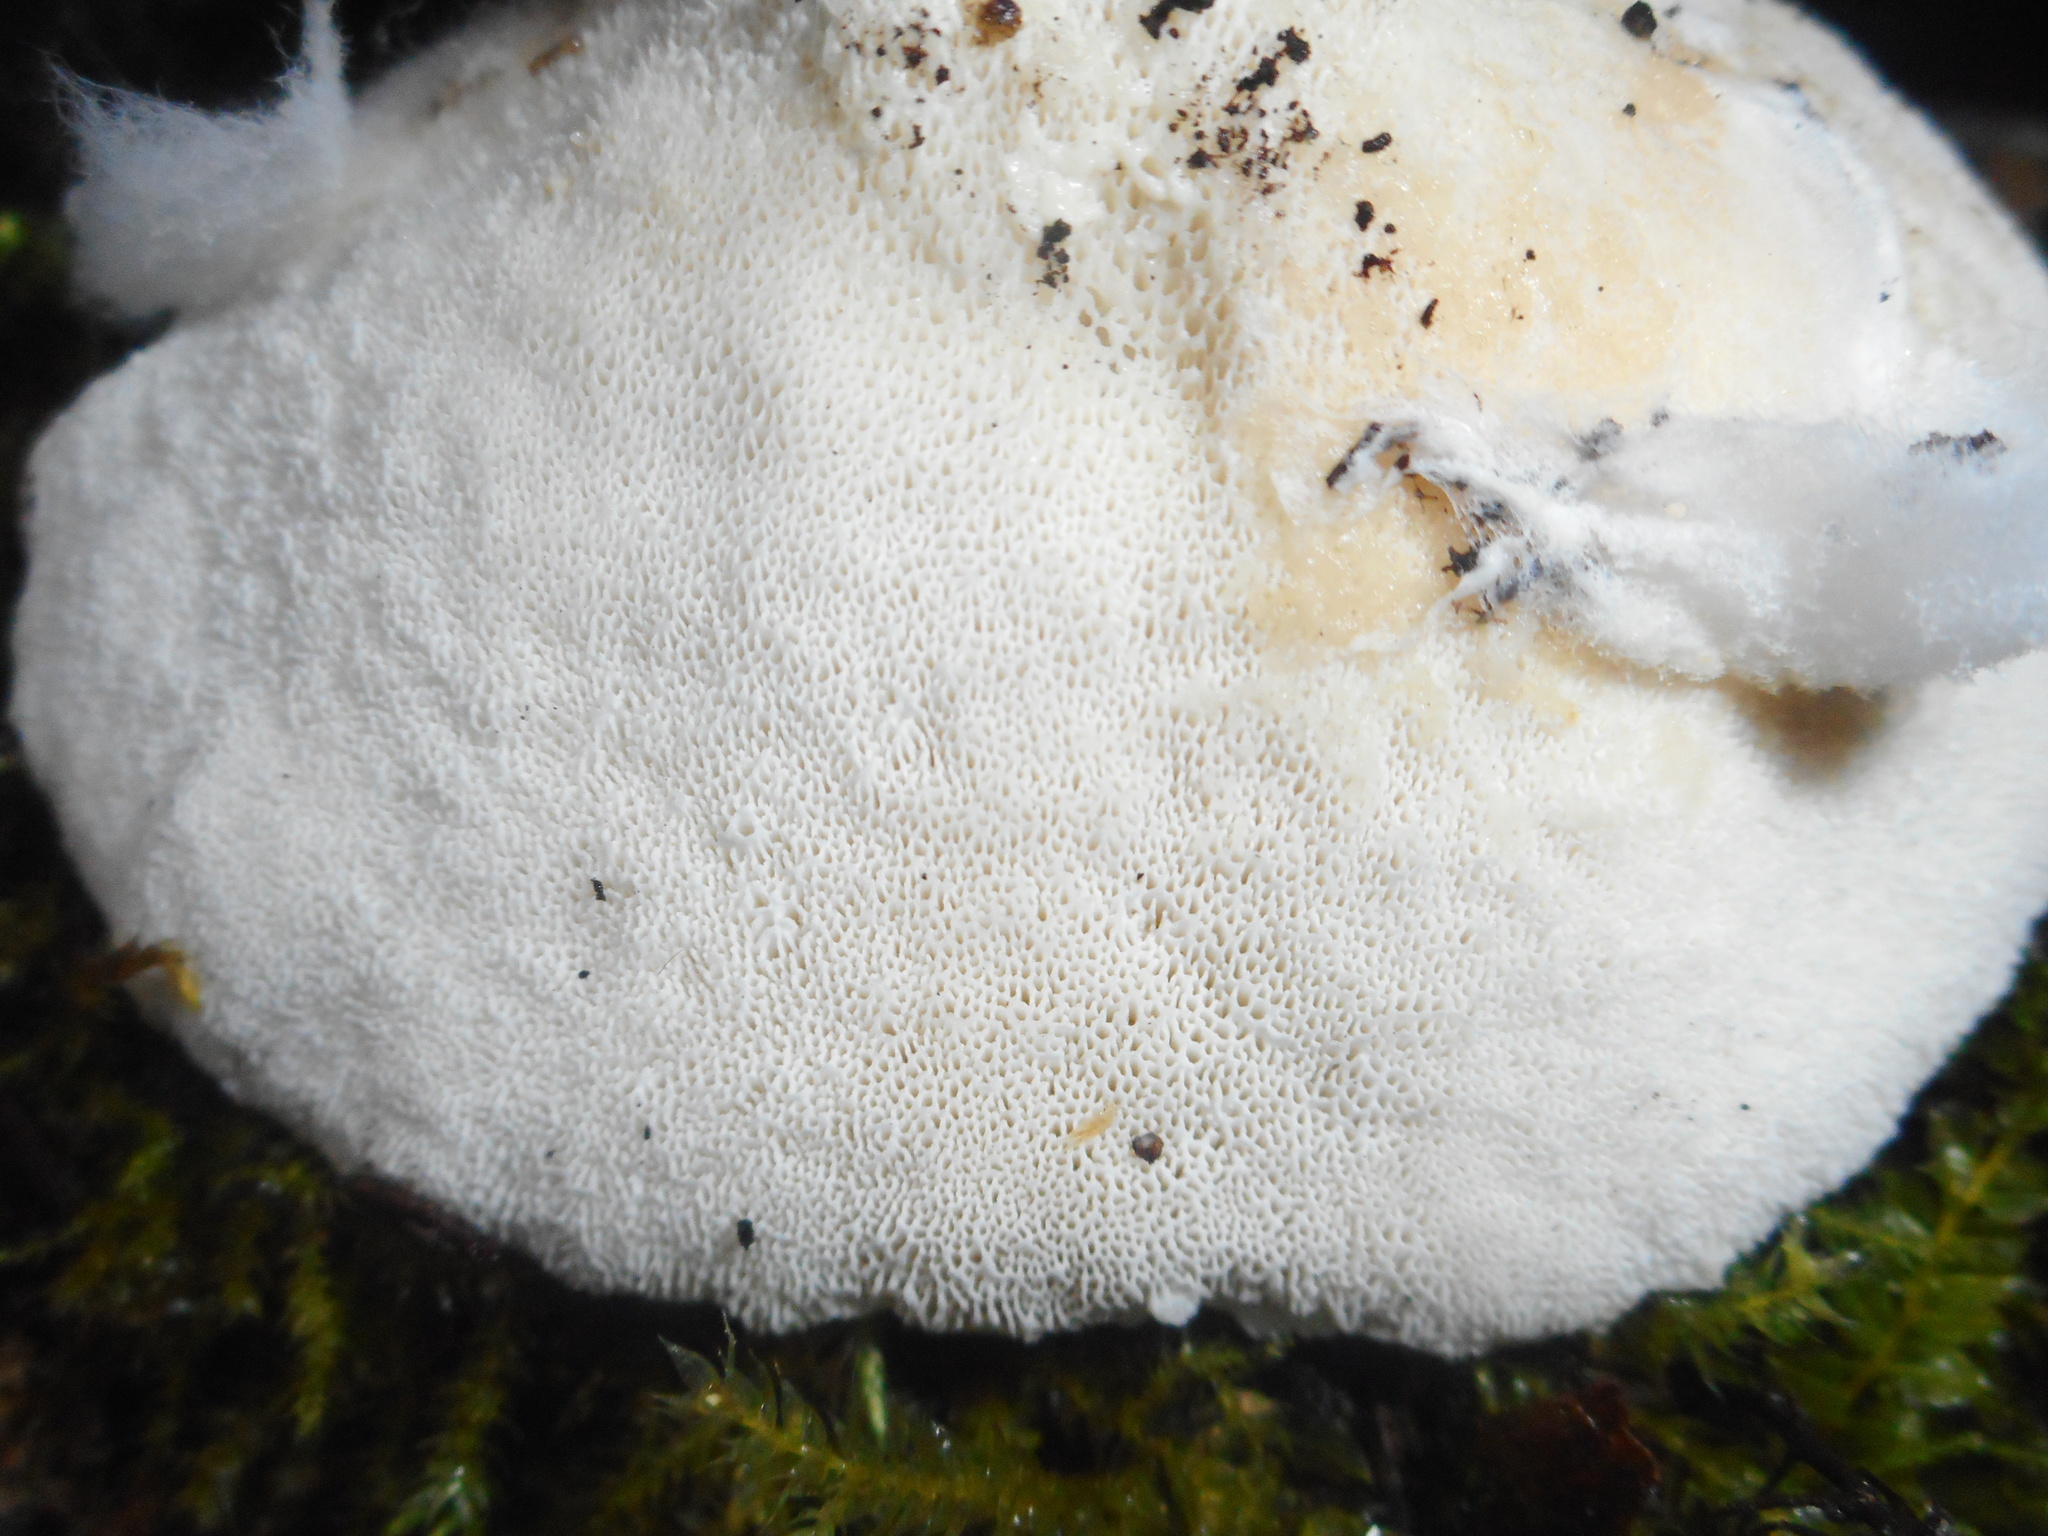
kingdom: Fungi
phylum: Basidiomycota
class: Agaricomycetes
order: Polyporales
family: Dacryobolaceae
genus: Postia
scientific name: Postia ptychogaster
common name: Powderpuff bracket
